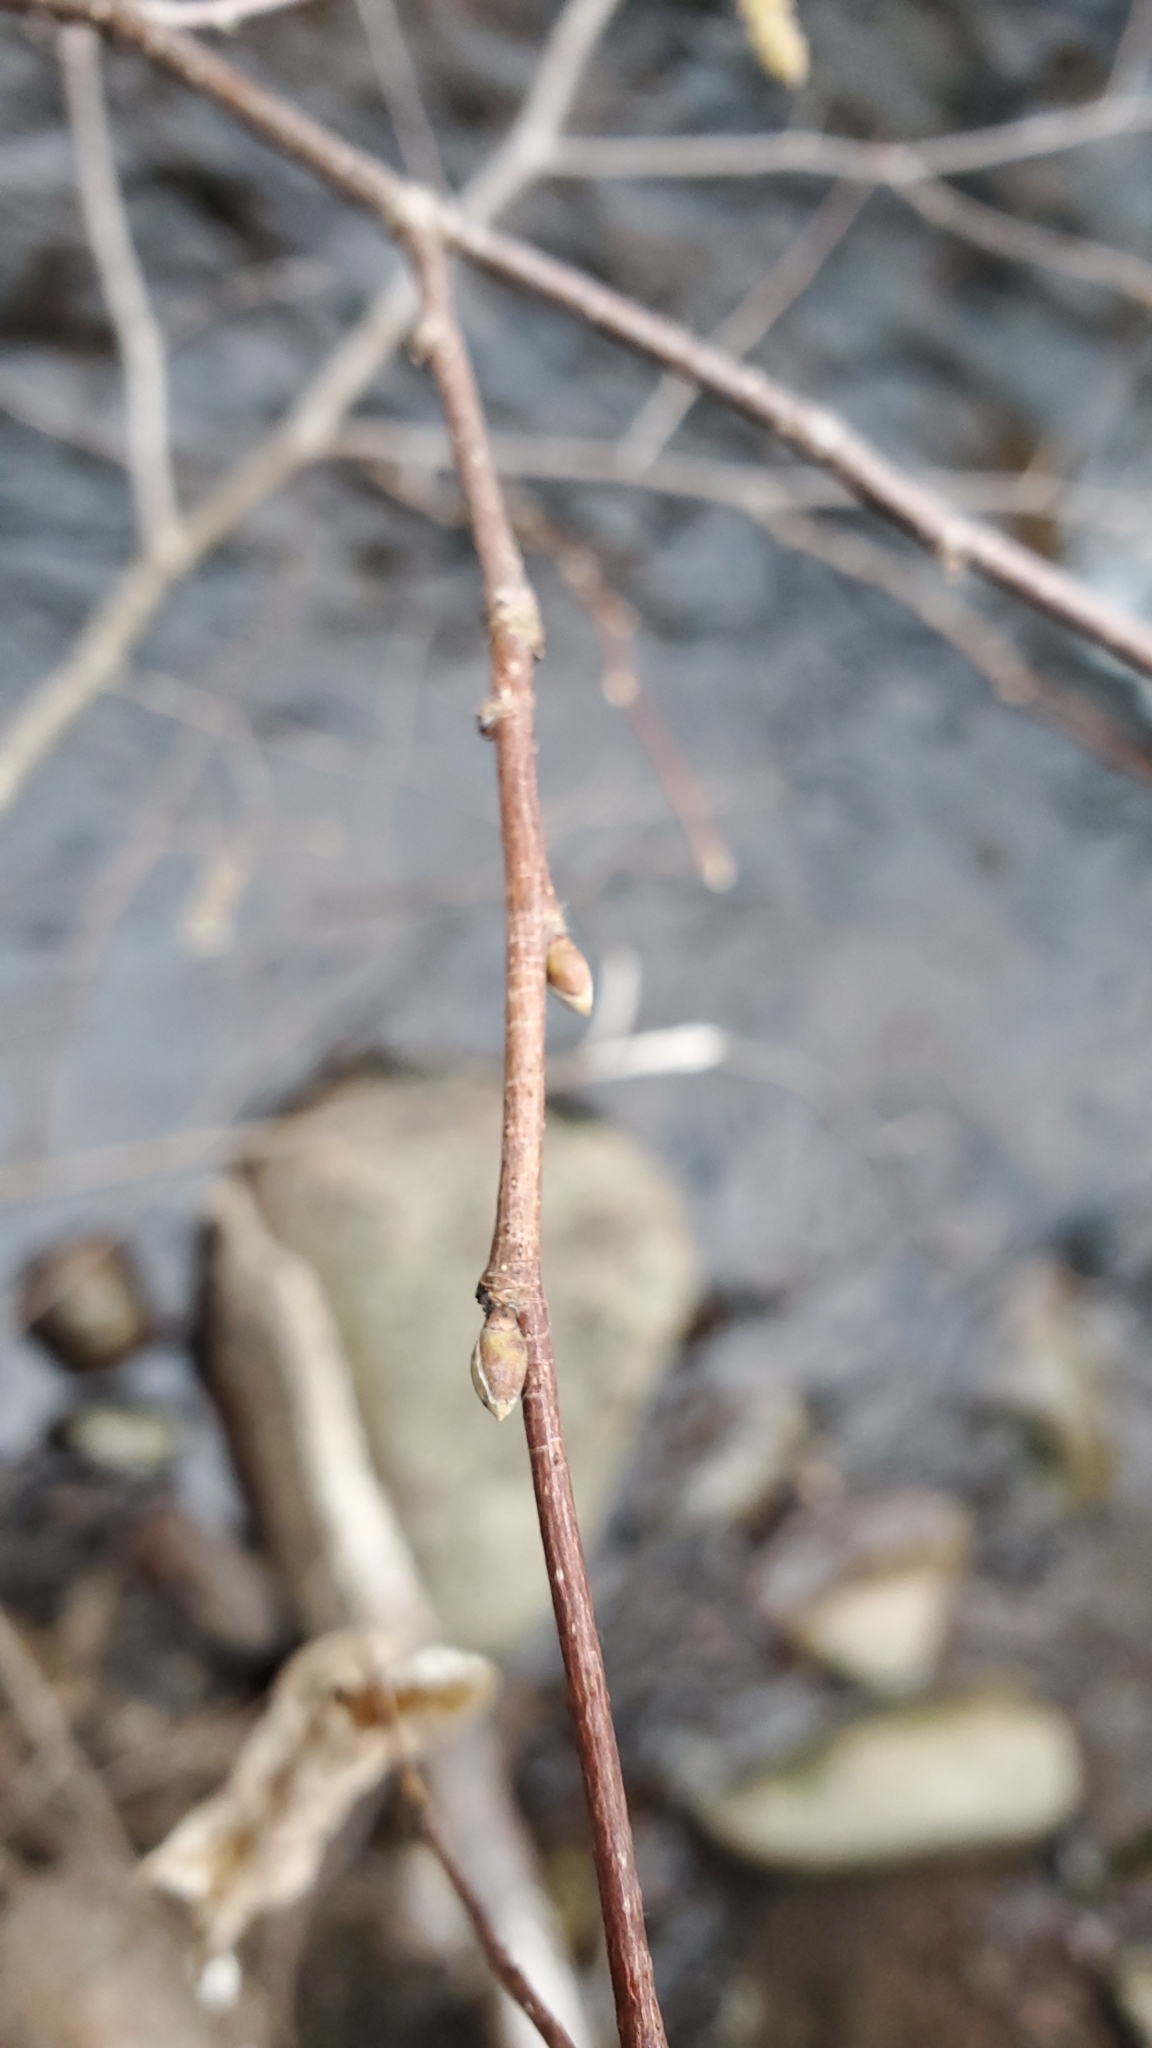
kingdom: Plantae
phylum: Tracheophyta
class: Magnoliopsida
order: Fagales
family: Betulaceae
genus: Corylus
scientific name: Corylus cornuta
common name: Beaked hazel
